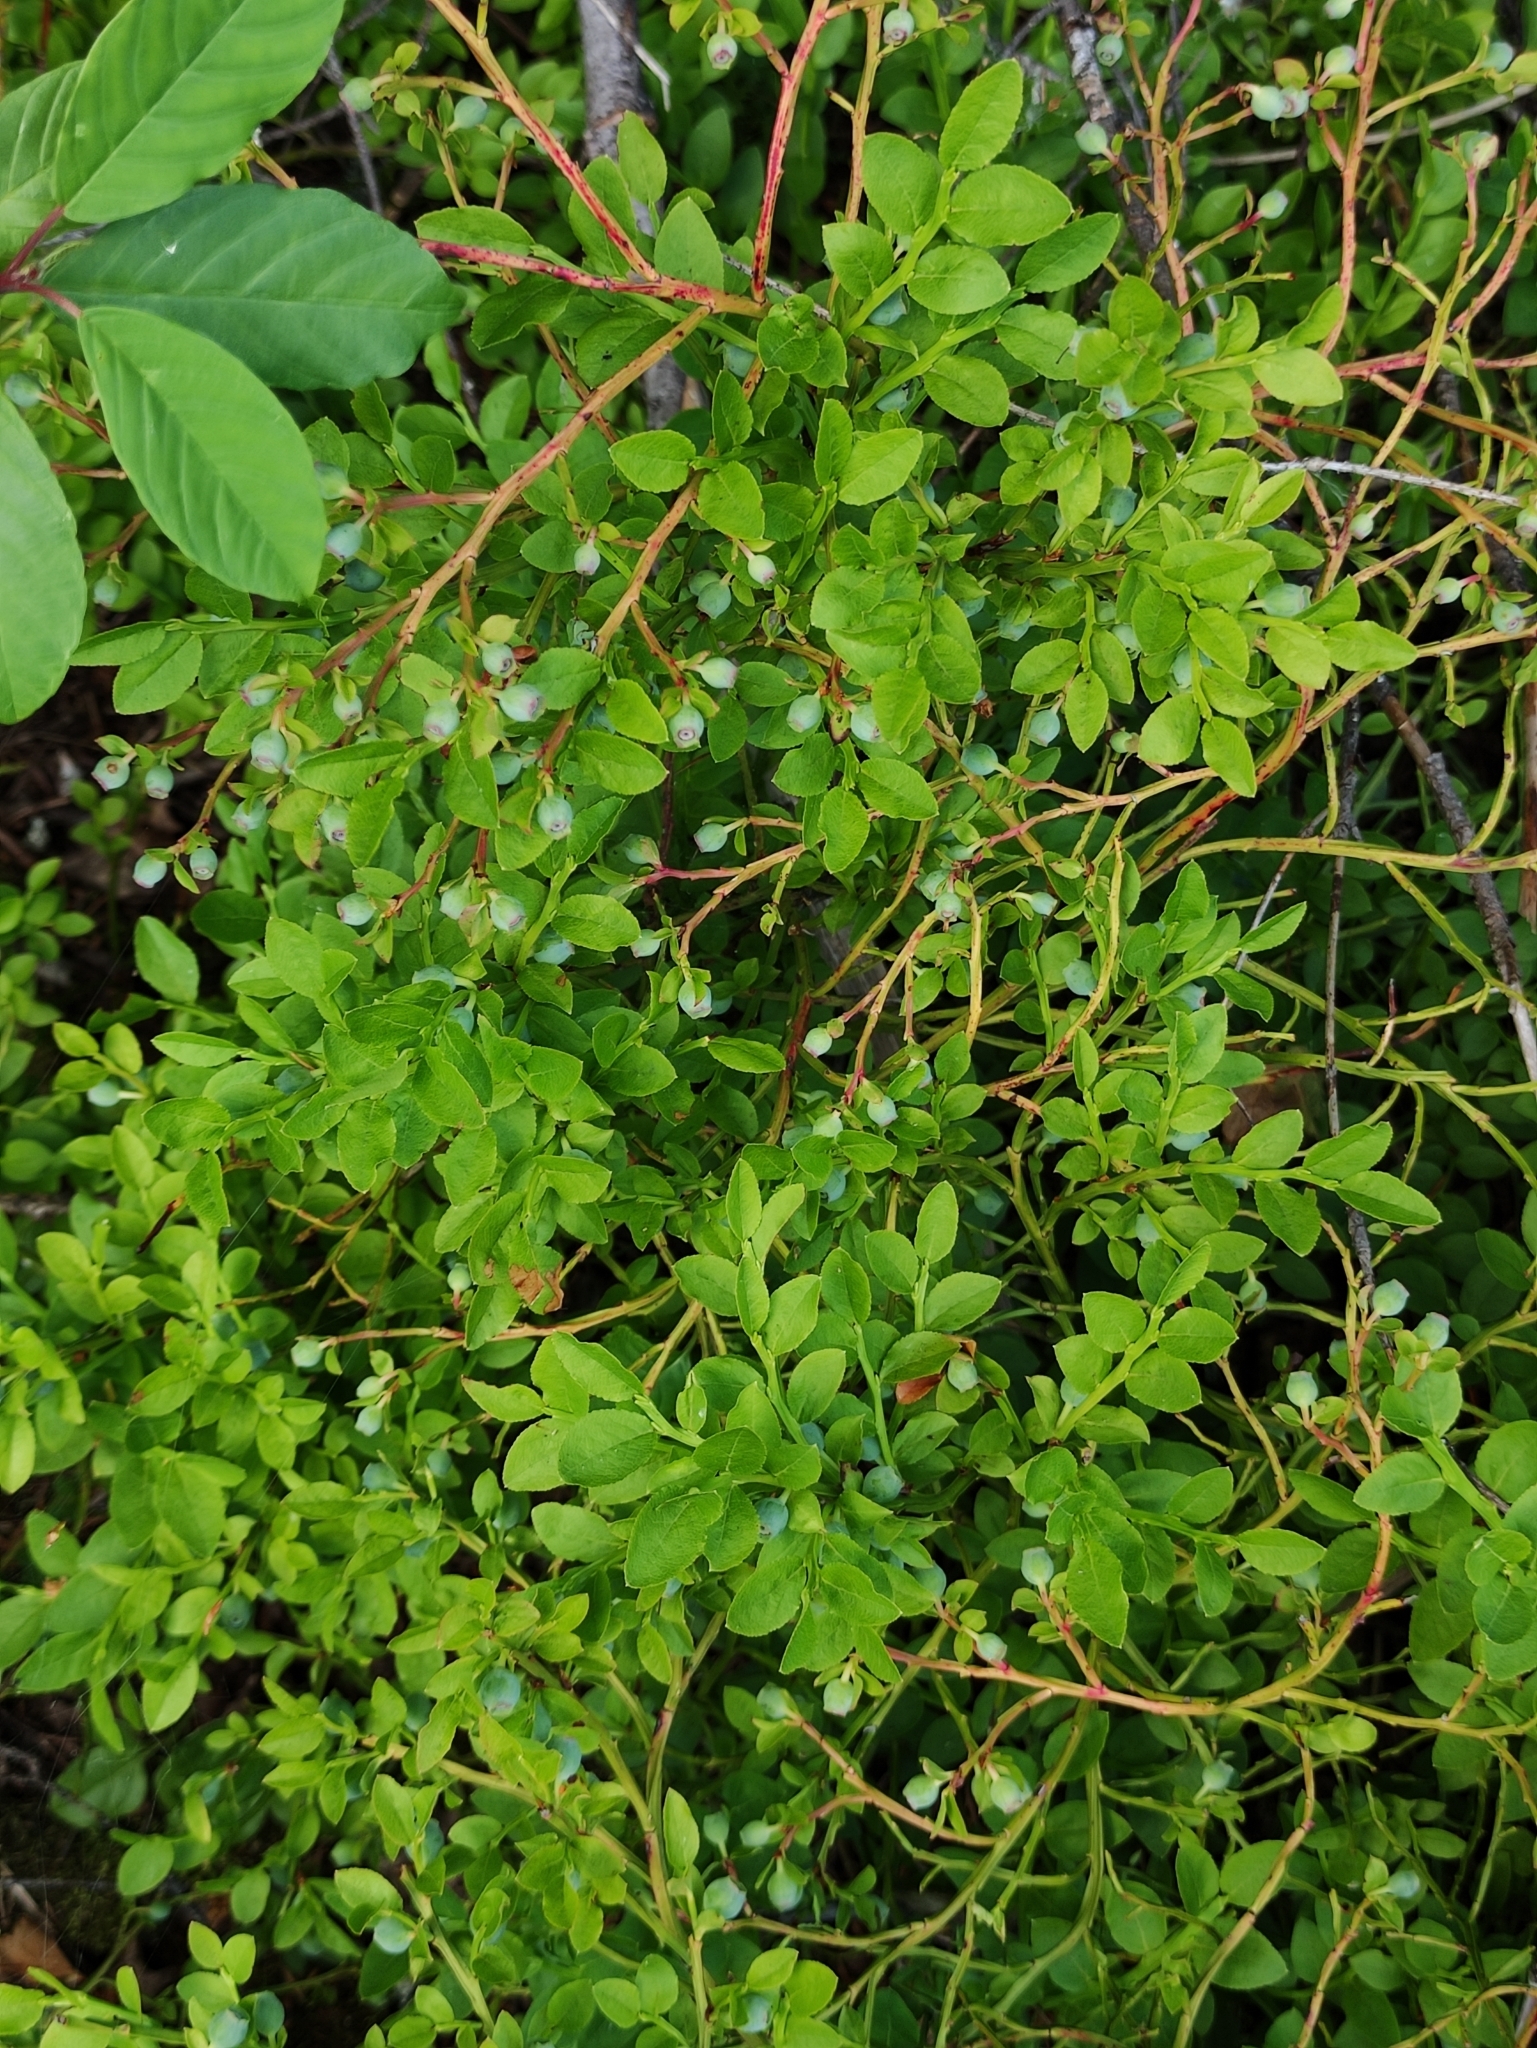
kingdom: Plantae
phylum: Tracheophyta
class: Magnoliopsida
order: Ericales
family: Ericaceae
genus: Vaccinium
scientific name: Vaccinium myrtillus
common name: Bilberry
